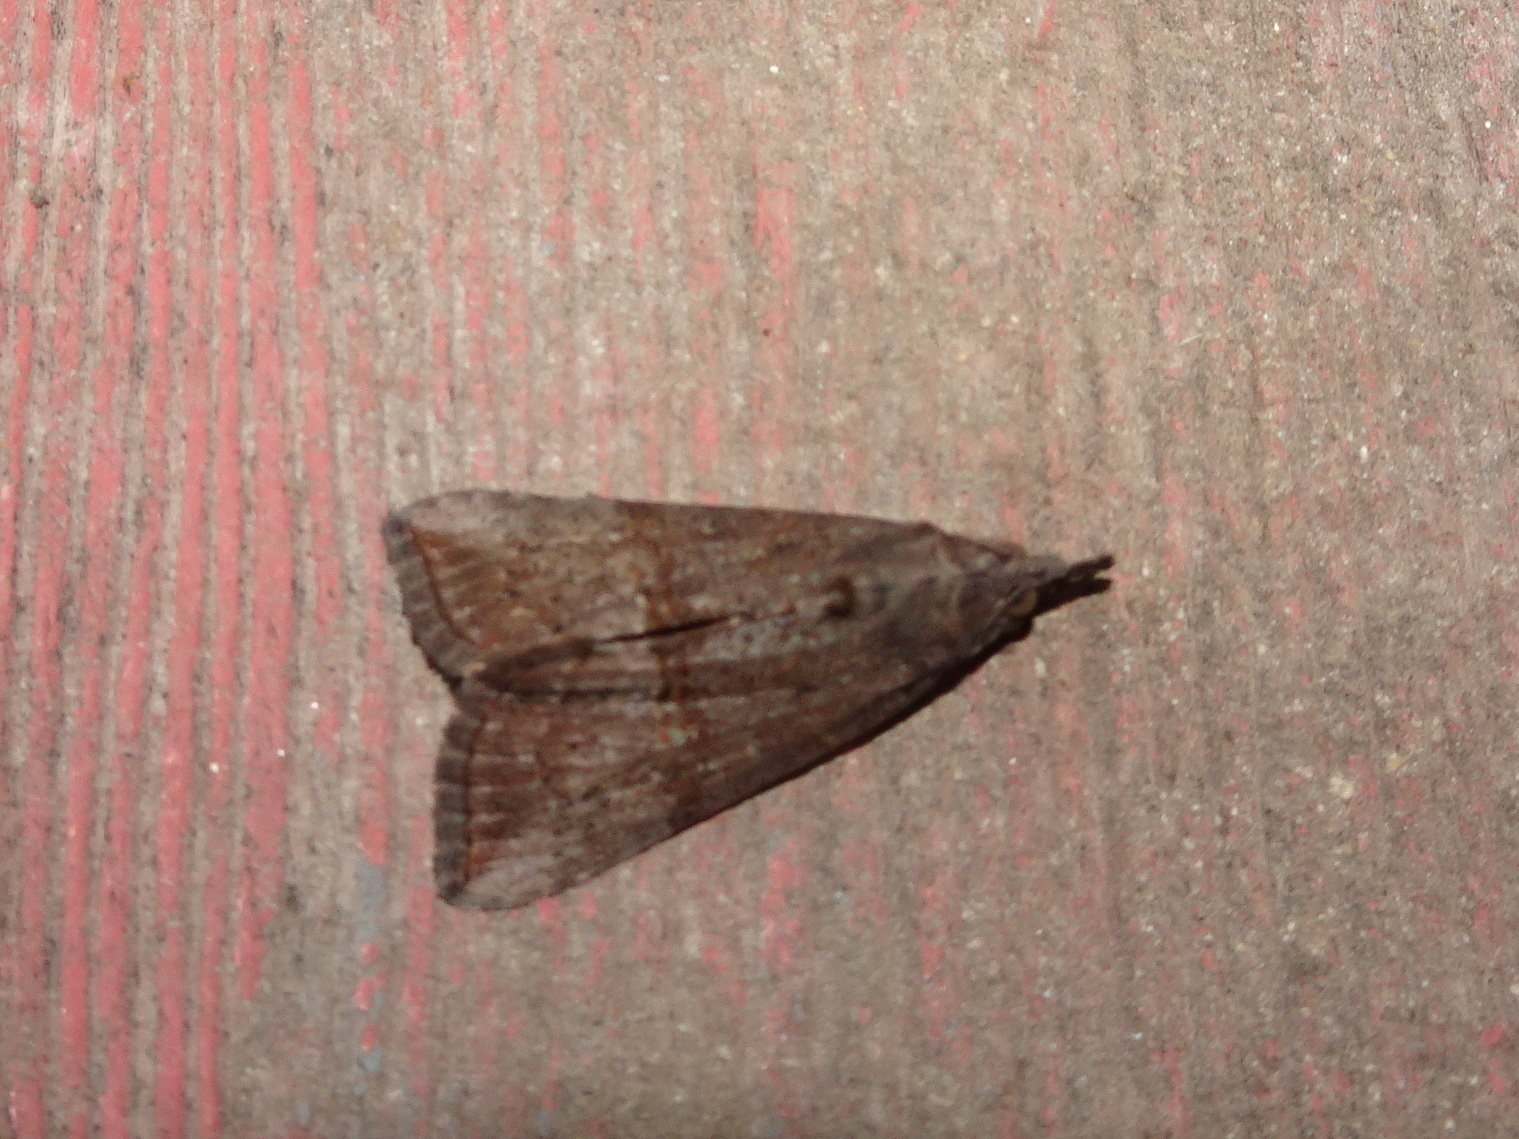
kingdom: Animalia
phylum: Arthropoda
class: Insecta
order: Lepidoptera
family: Erebidae
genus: Hypena
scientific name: Hypena scabra
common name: Green cloverworm
